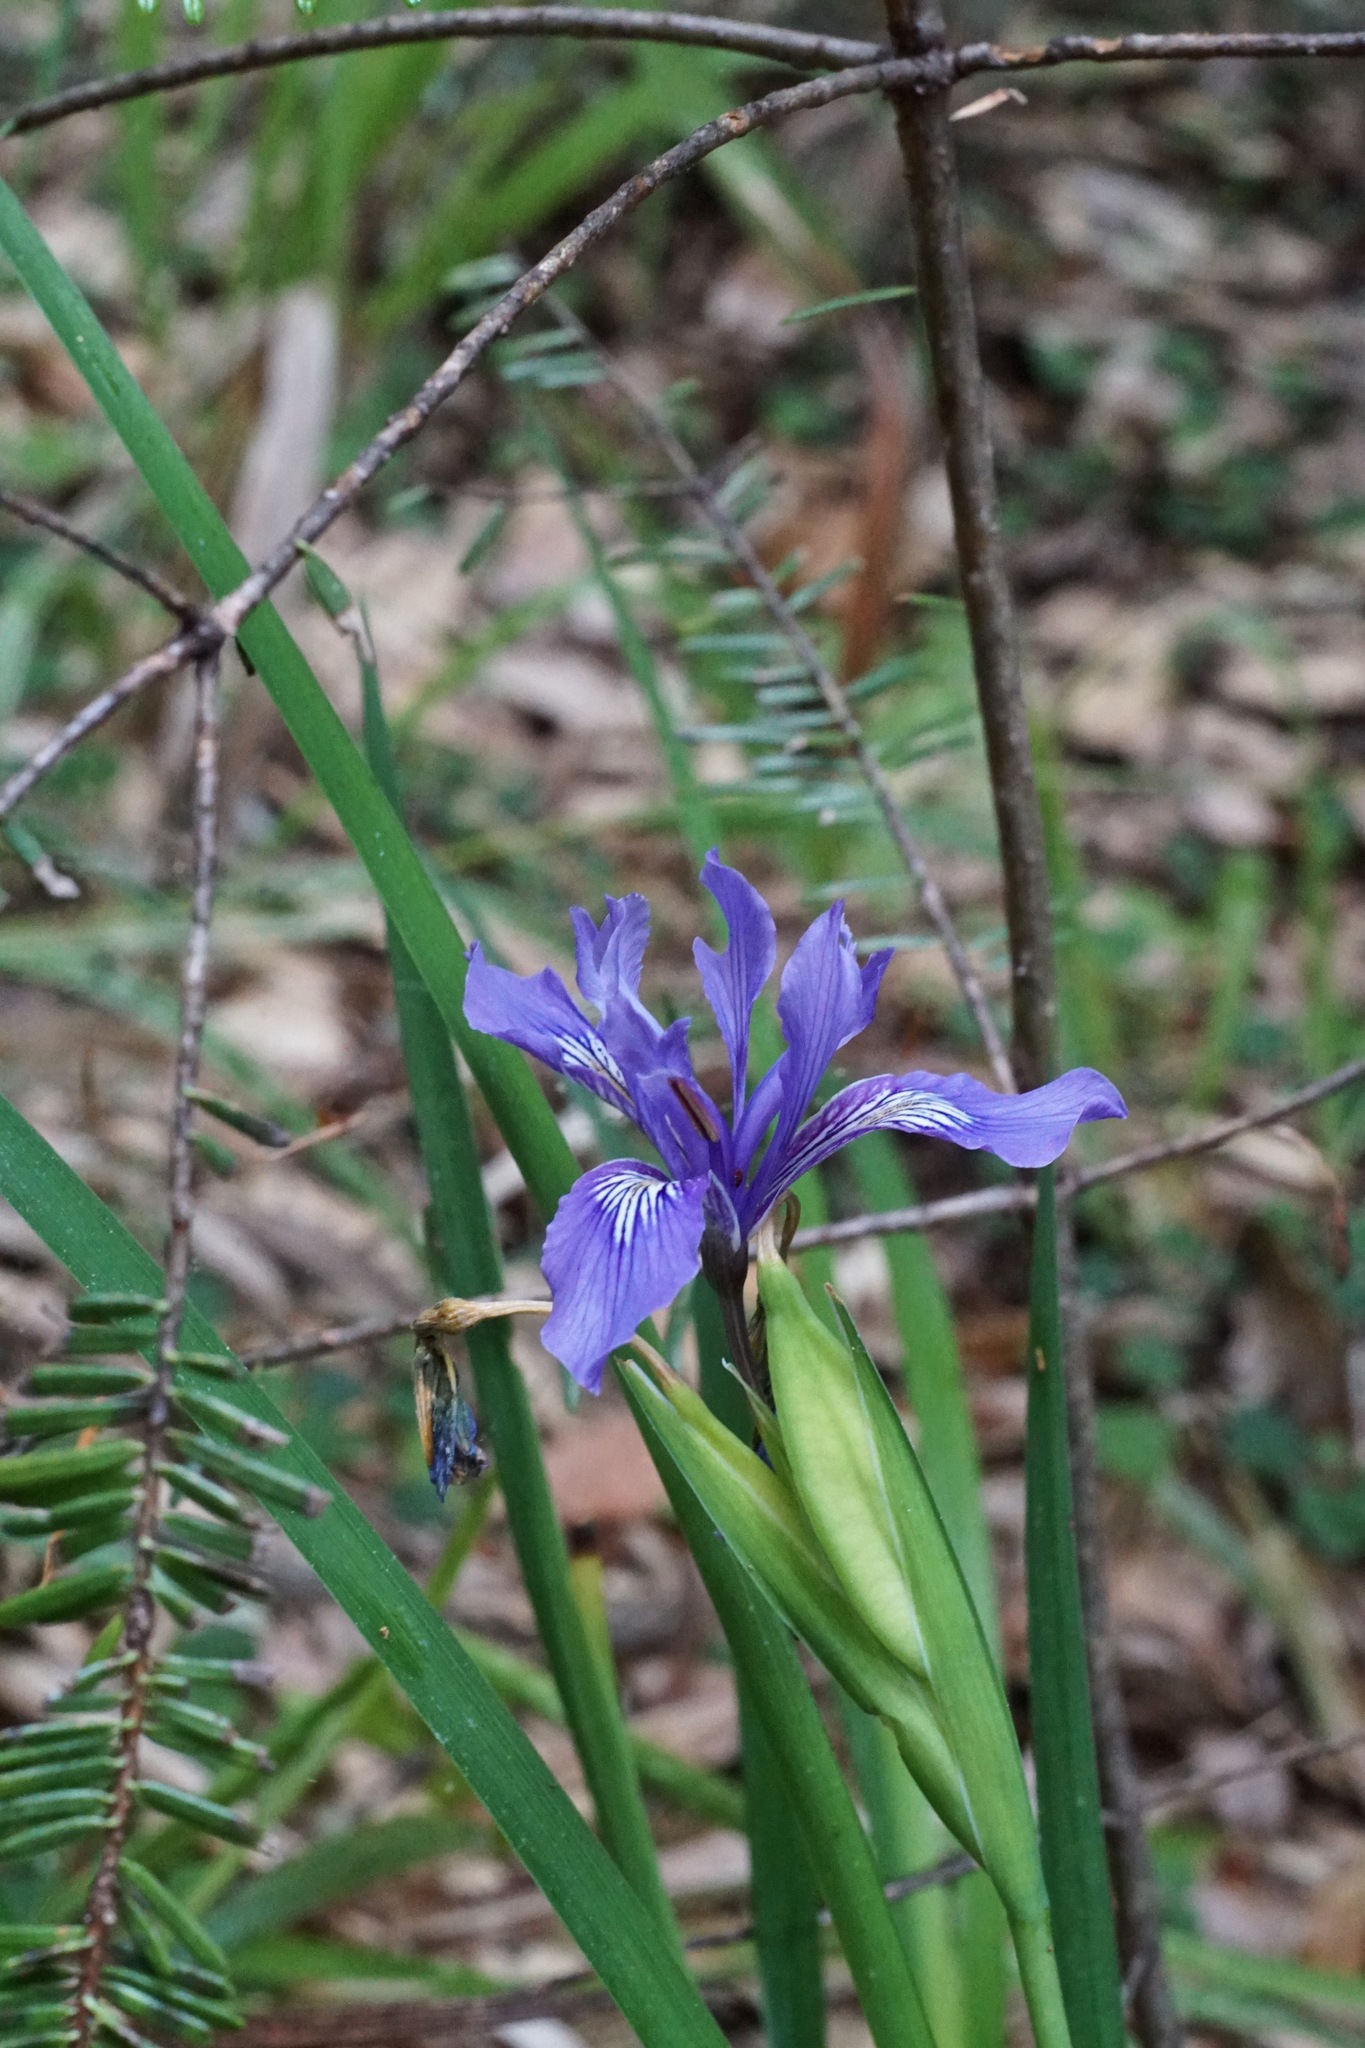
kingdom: Plantae
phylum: Tracheophyta
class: Liliopsida
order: Asparagales
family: Iridaceae
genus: Iris
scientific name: Iris douglasiana
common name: Marin iris
